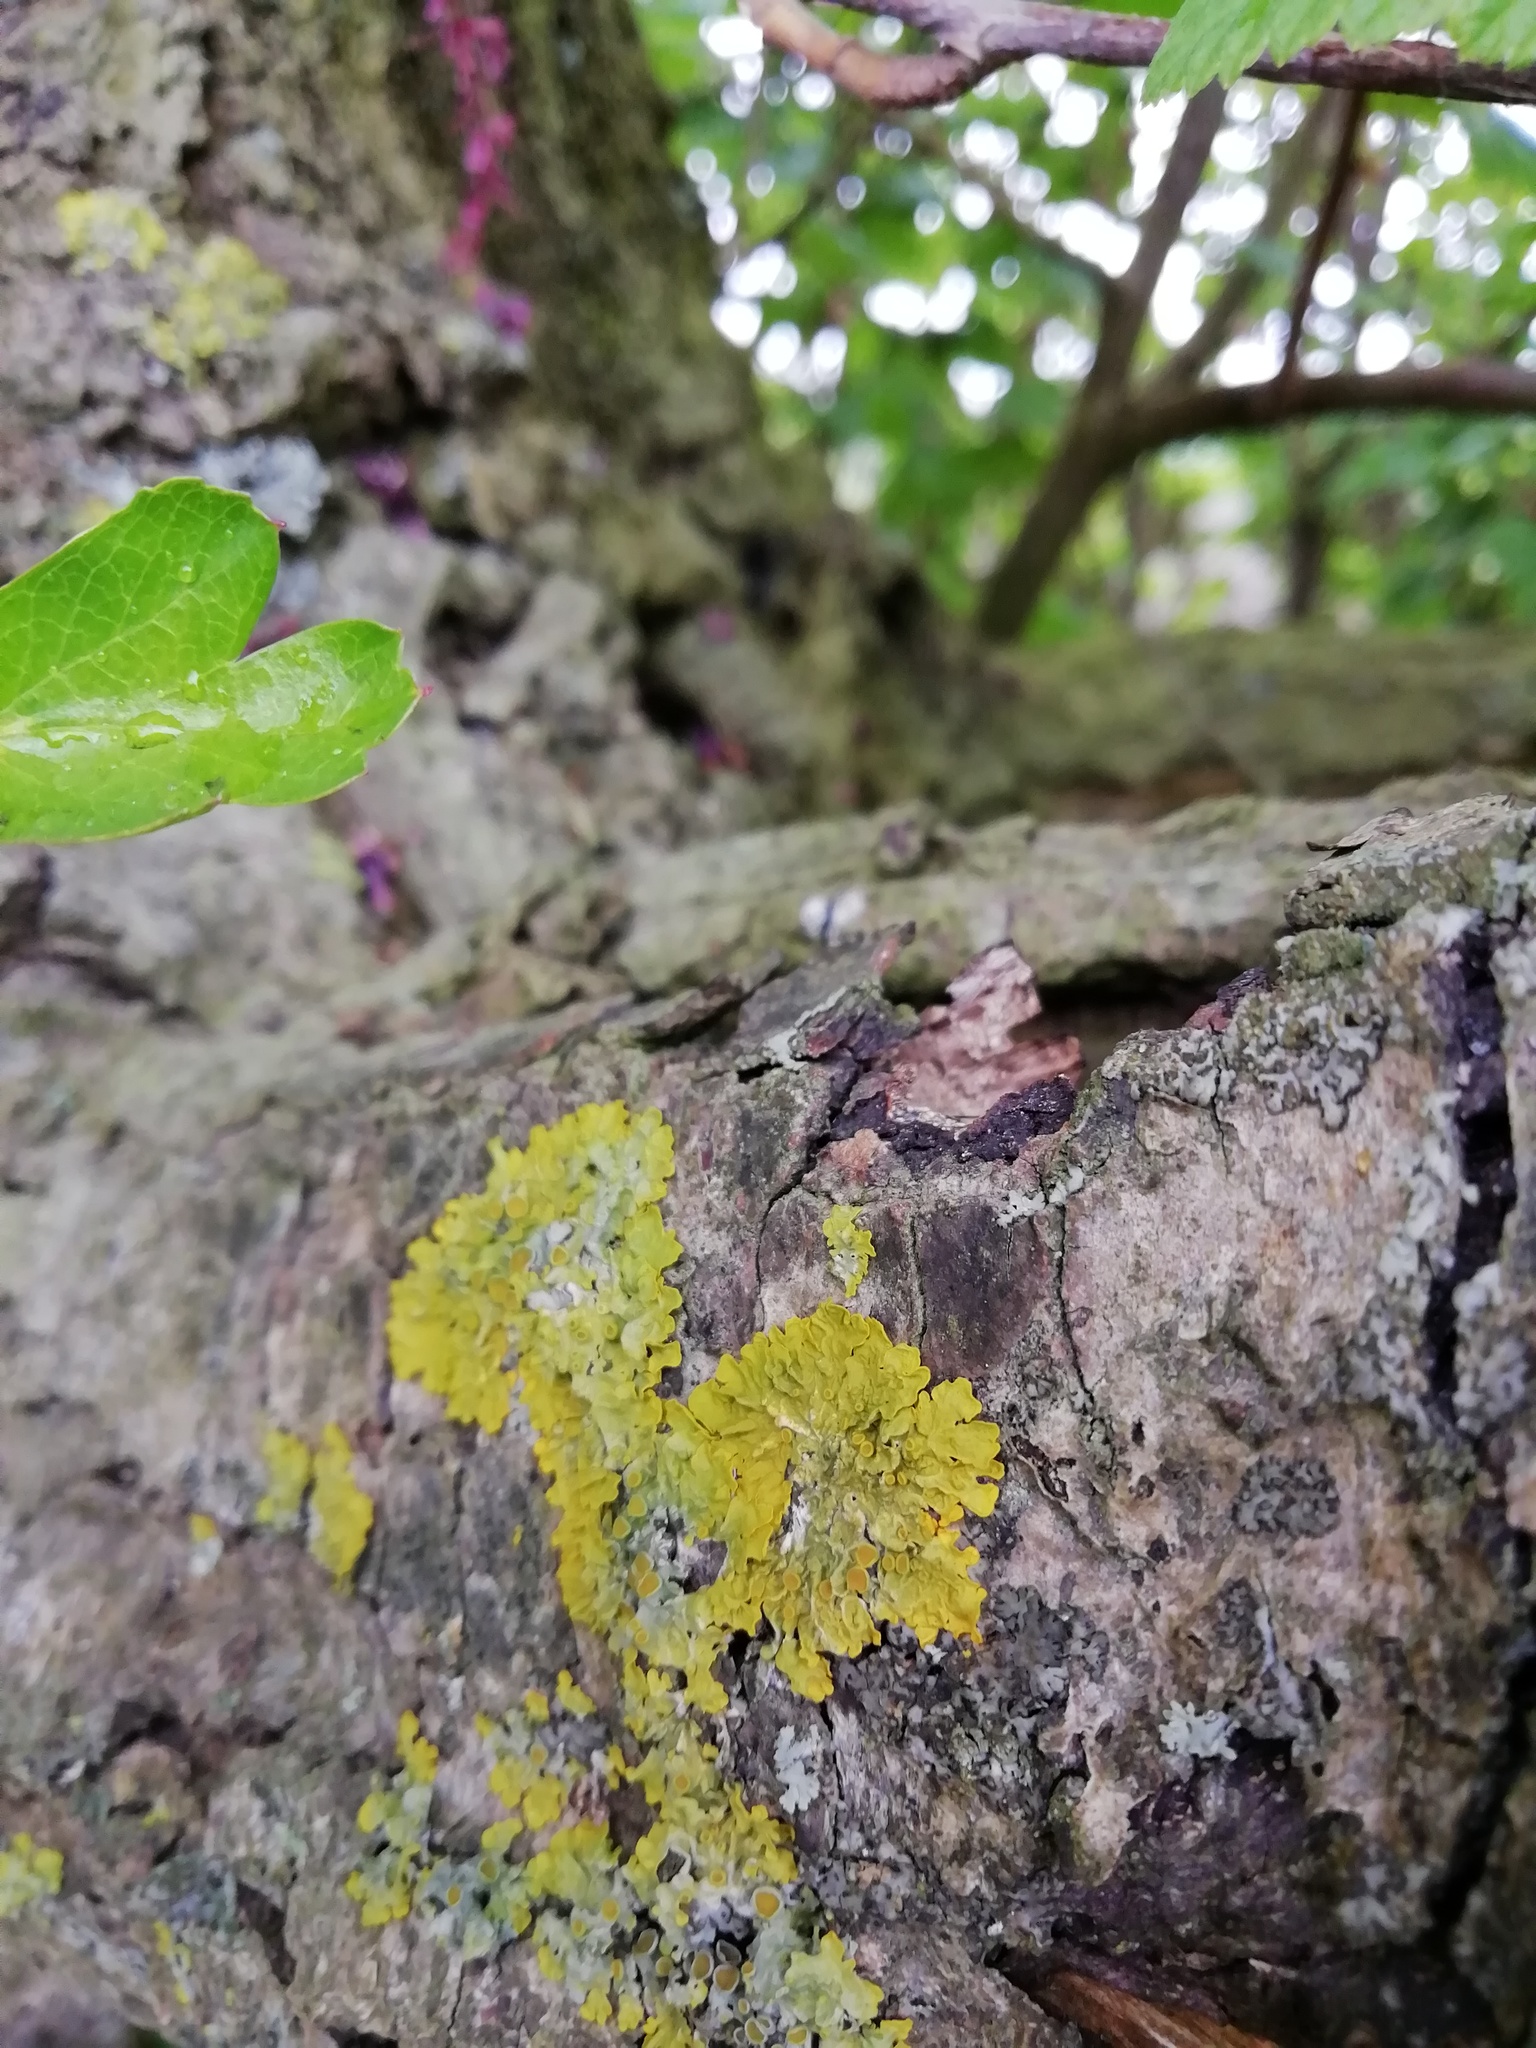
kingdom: Fungi
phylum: Ascomycota
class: Lecanoromycetes
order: Teloschistales
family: Teloschistaceae
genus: Xanthoria
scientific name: Xanthoria parietina
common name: Common orange lichen
